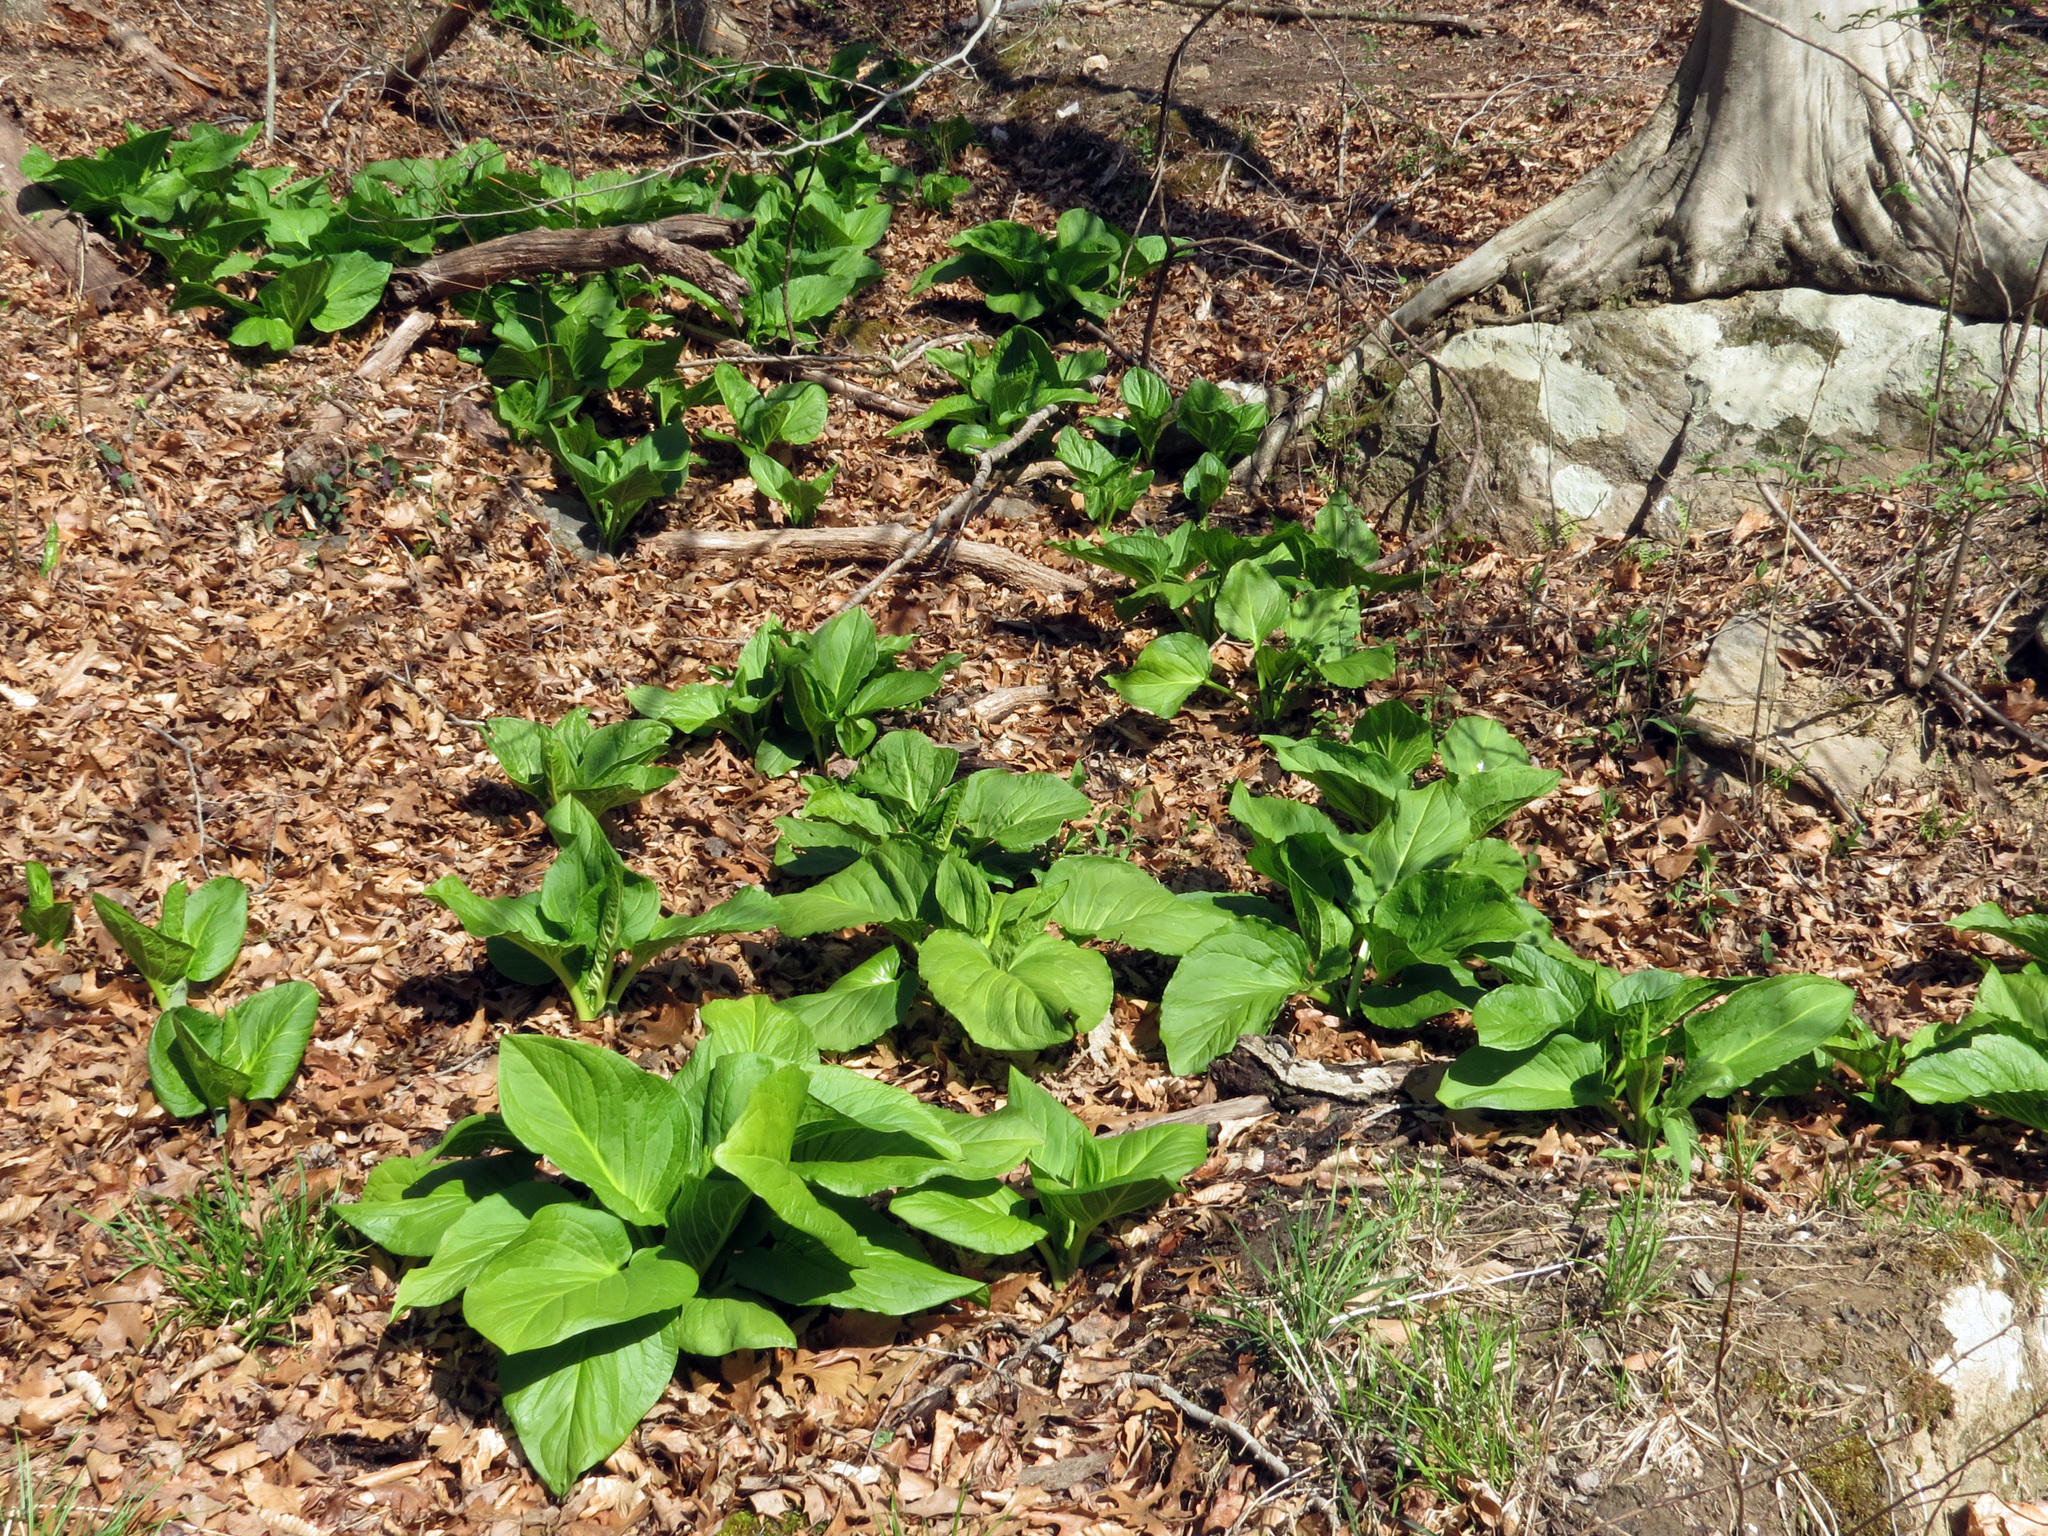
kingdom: Plantae
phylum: Tracheophyta
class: Liliopsida
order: Alismatales
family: Araceae
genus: Symplocarpus
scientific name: Symplocarpus foetidus
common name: Eastern skunk cabbage
